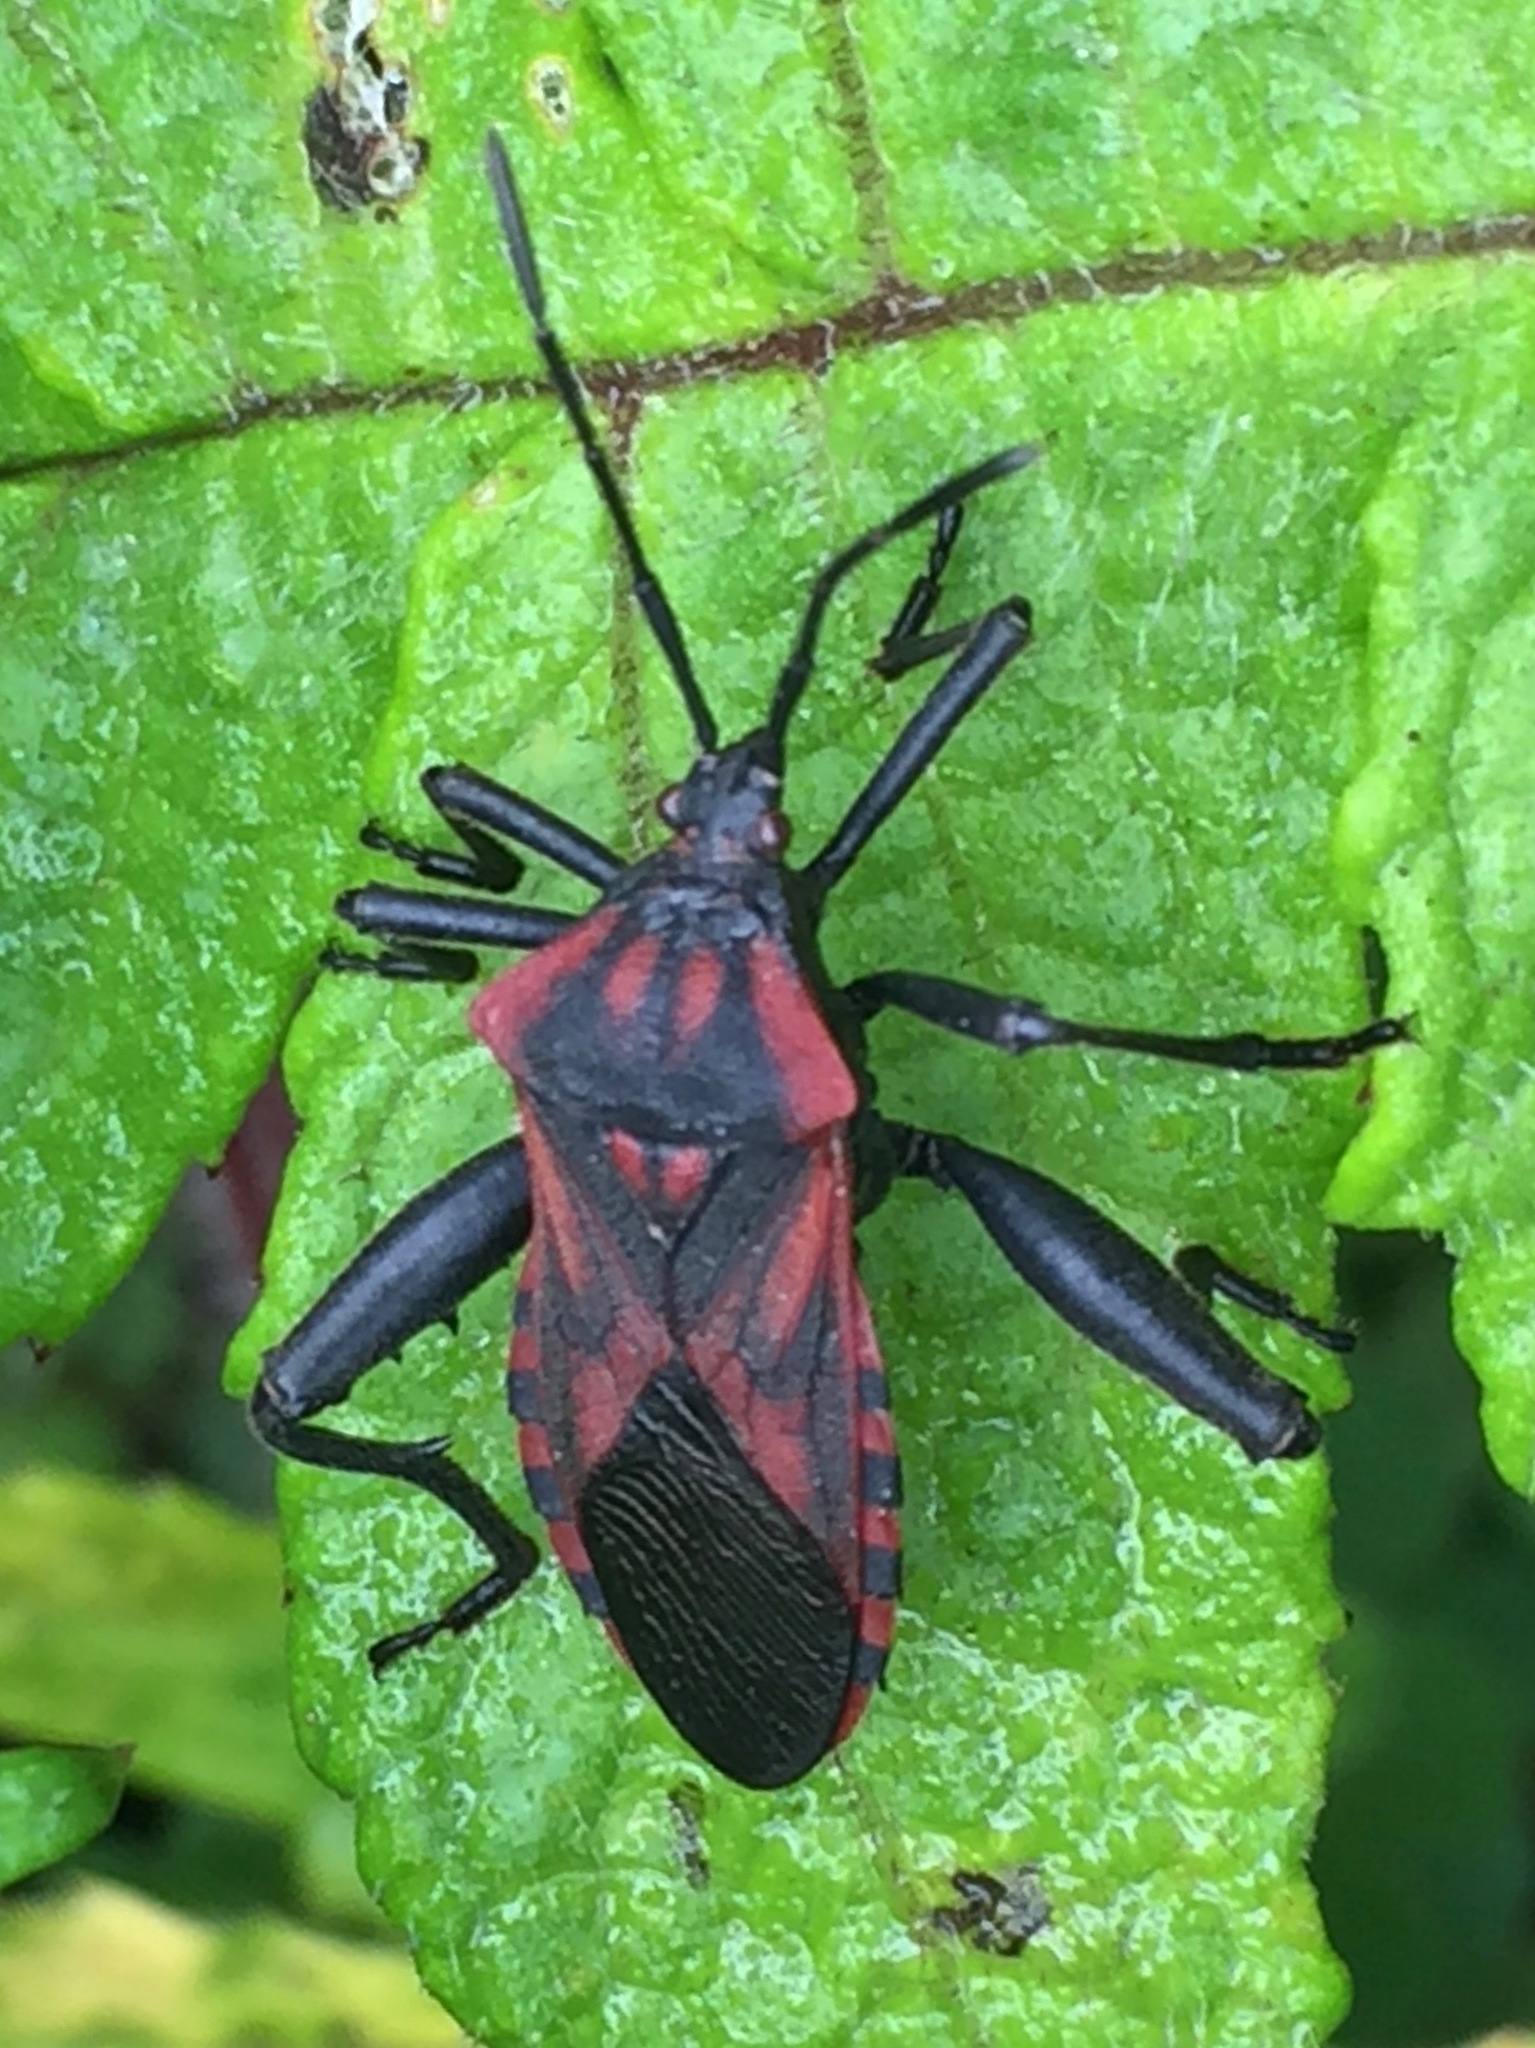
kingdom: Animalia
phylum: Arthropoda
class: Insecta
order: Hemiptera
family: Coreidae
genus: Piezogaster
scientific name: Piezogaster rubropictus
